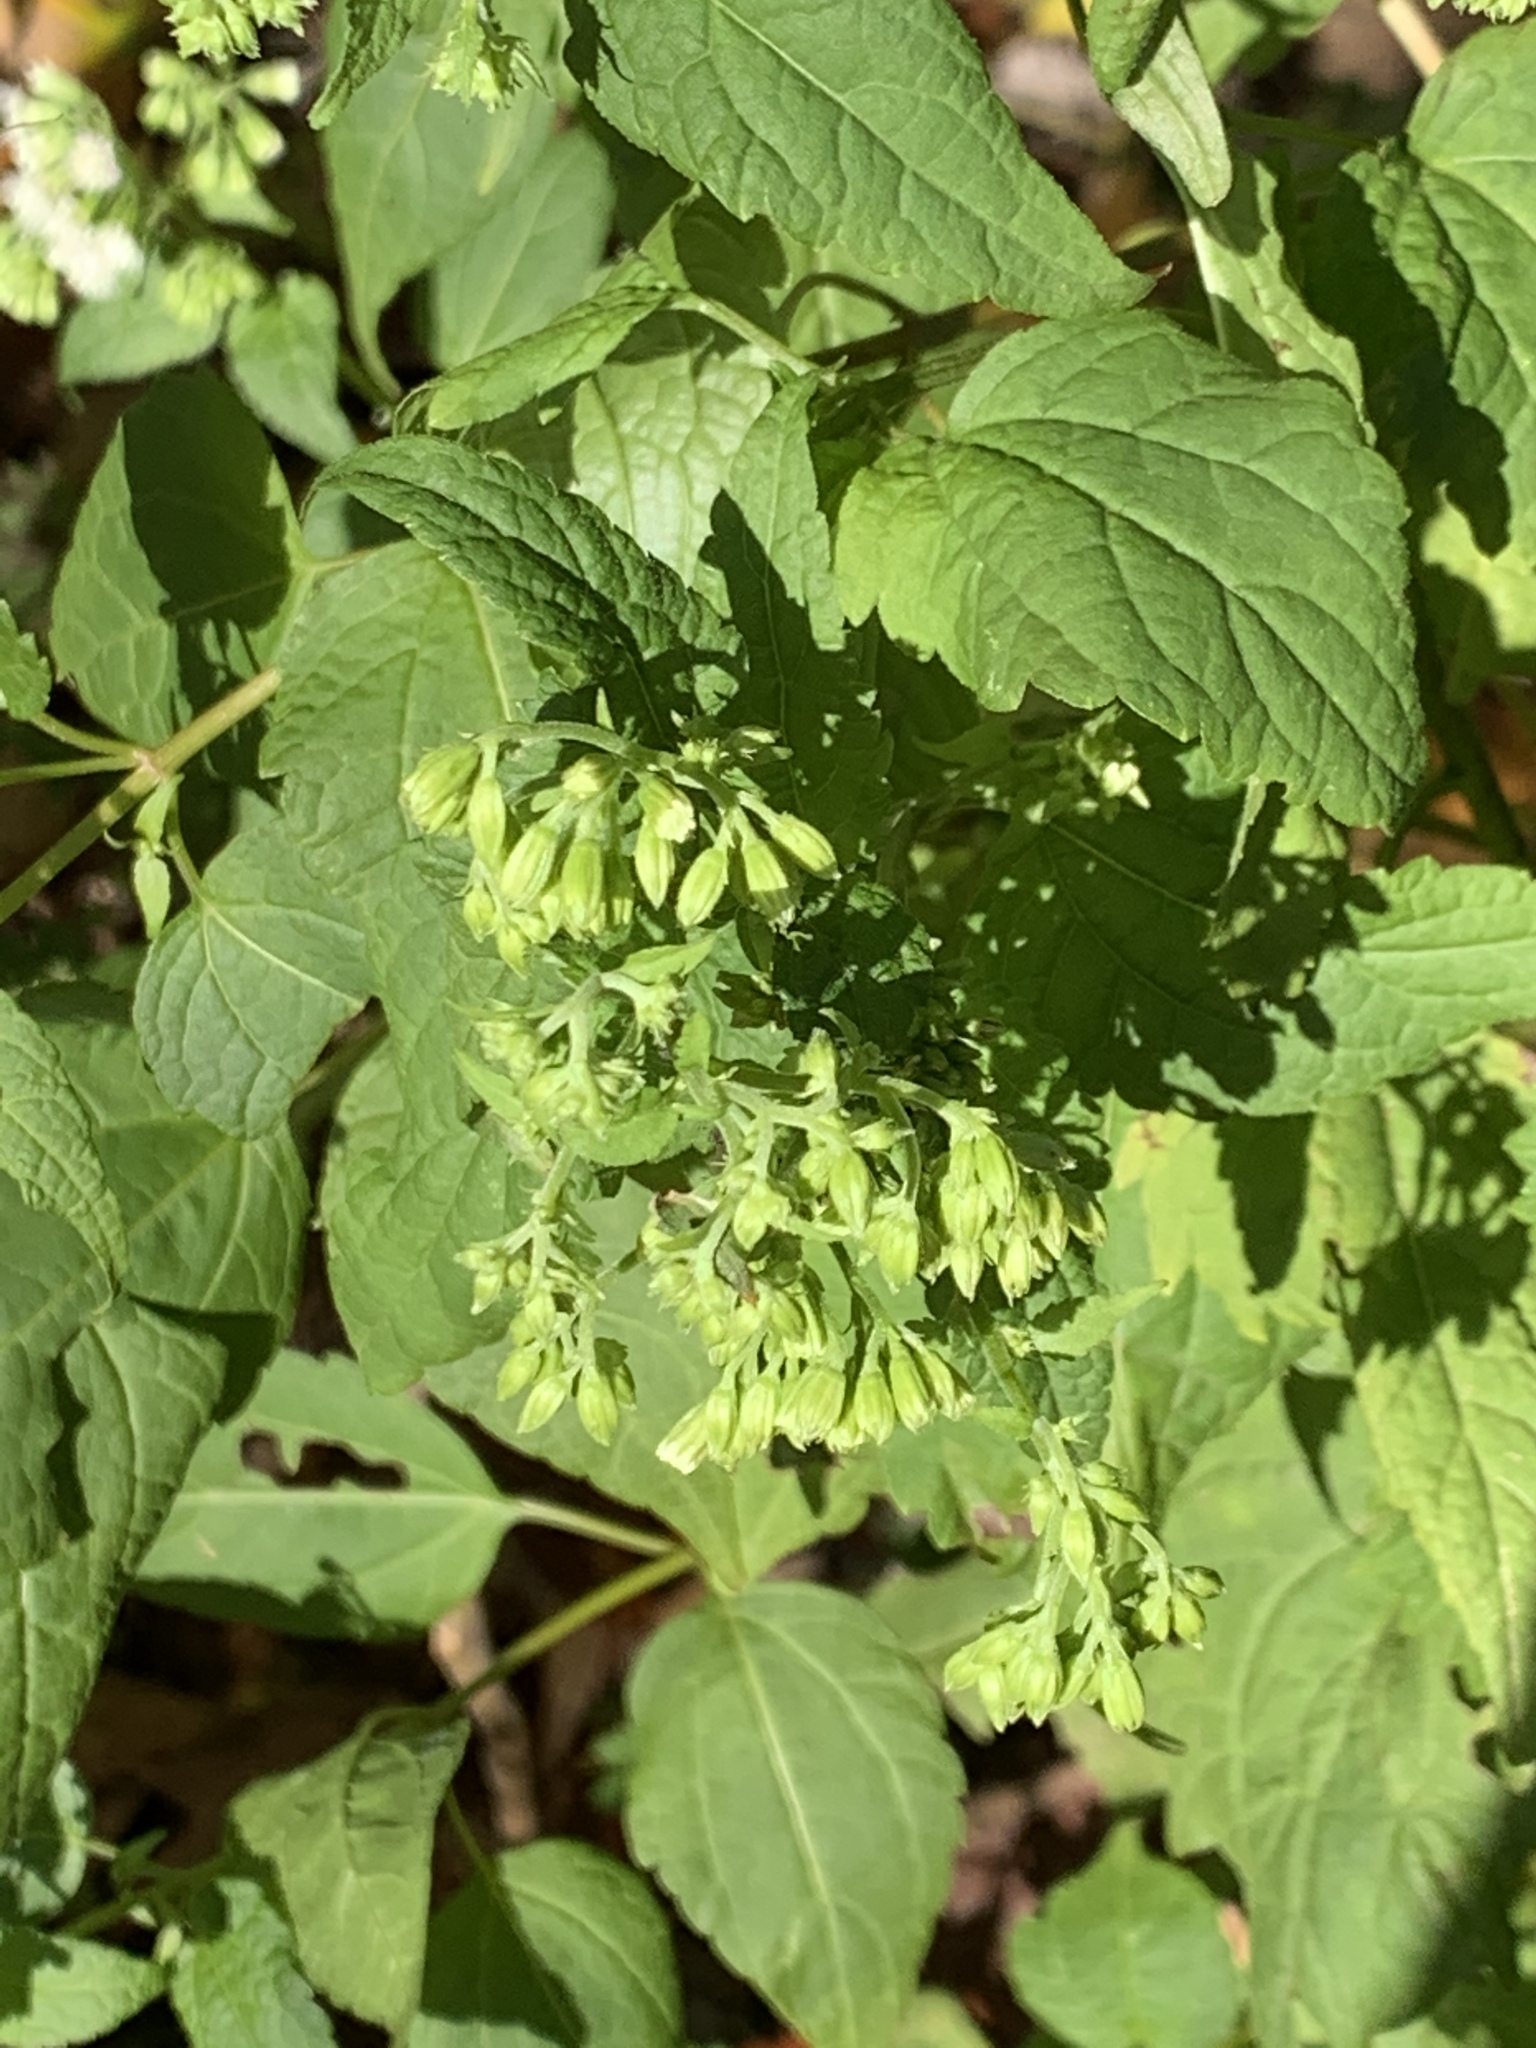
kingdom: Plantae
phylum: Tracheophyta
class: Magnoliopsida
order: Asterales
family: Asteraceae
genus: Ageratina
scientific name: Ageratina altissima
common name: White snakeroot
